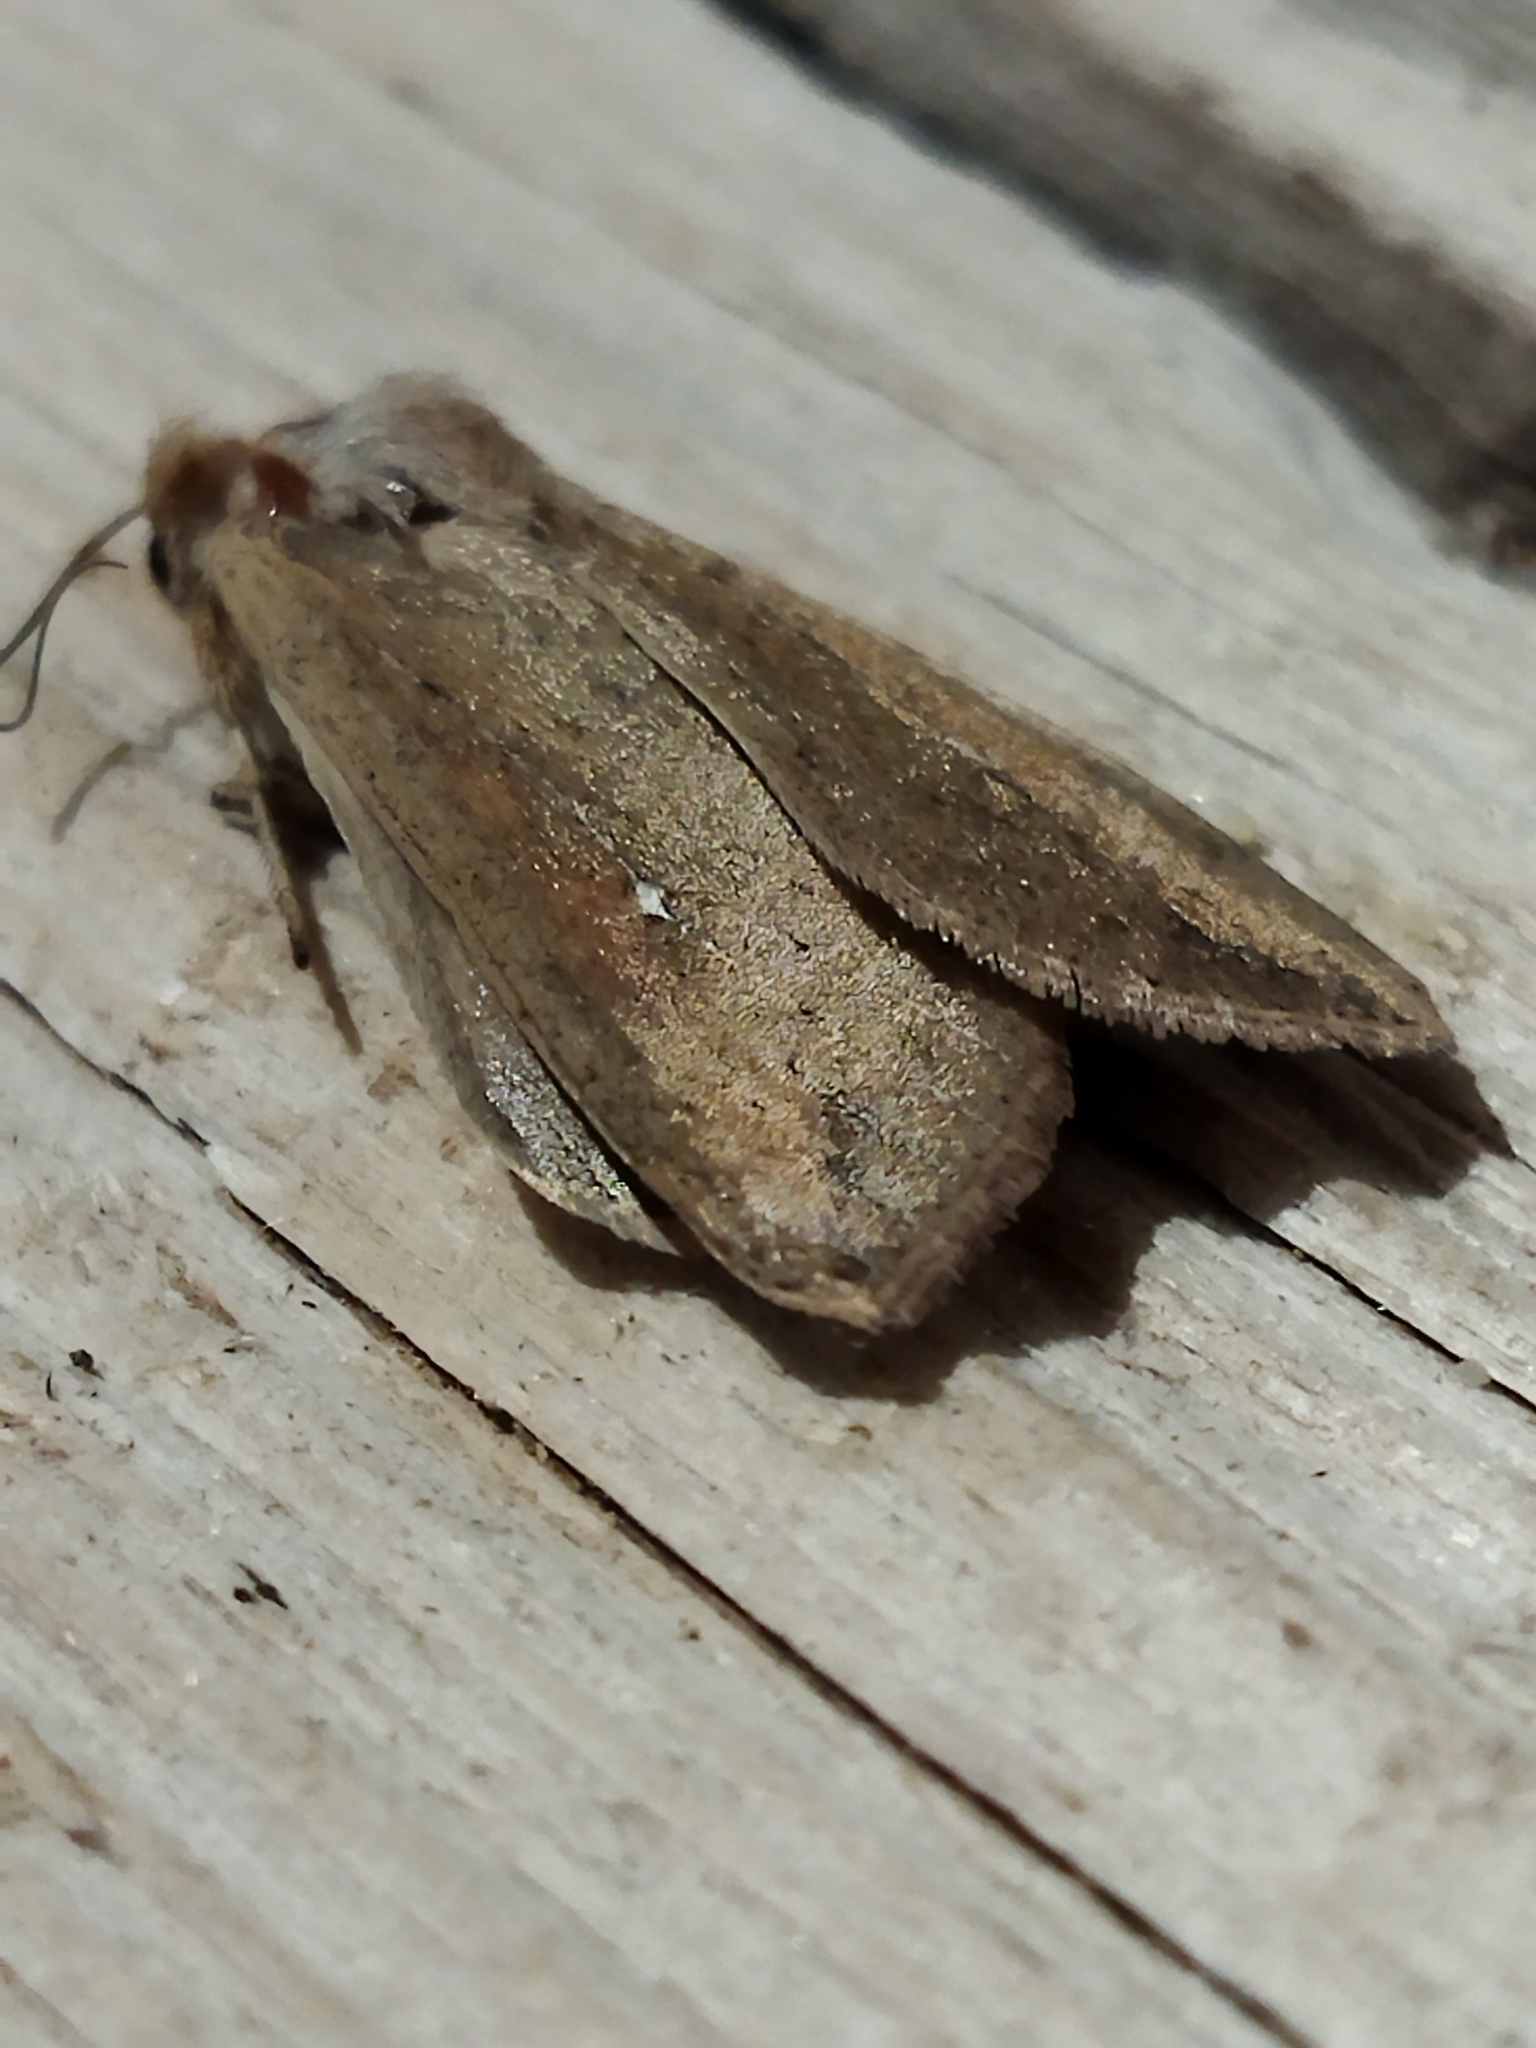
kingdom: Animalia
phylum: Arthropoda
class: Insecta
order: Lepidoptera
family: Noctuidae
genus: Mythimna
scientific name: Mythimna unipuncta
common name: White-speck
